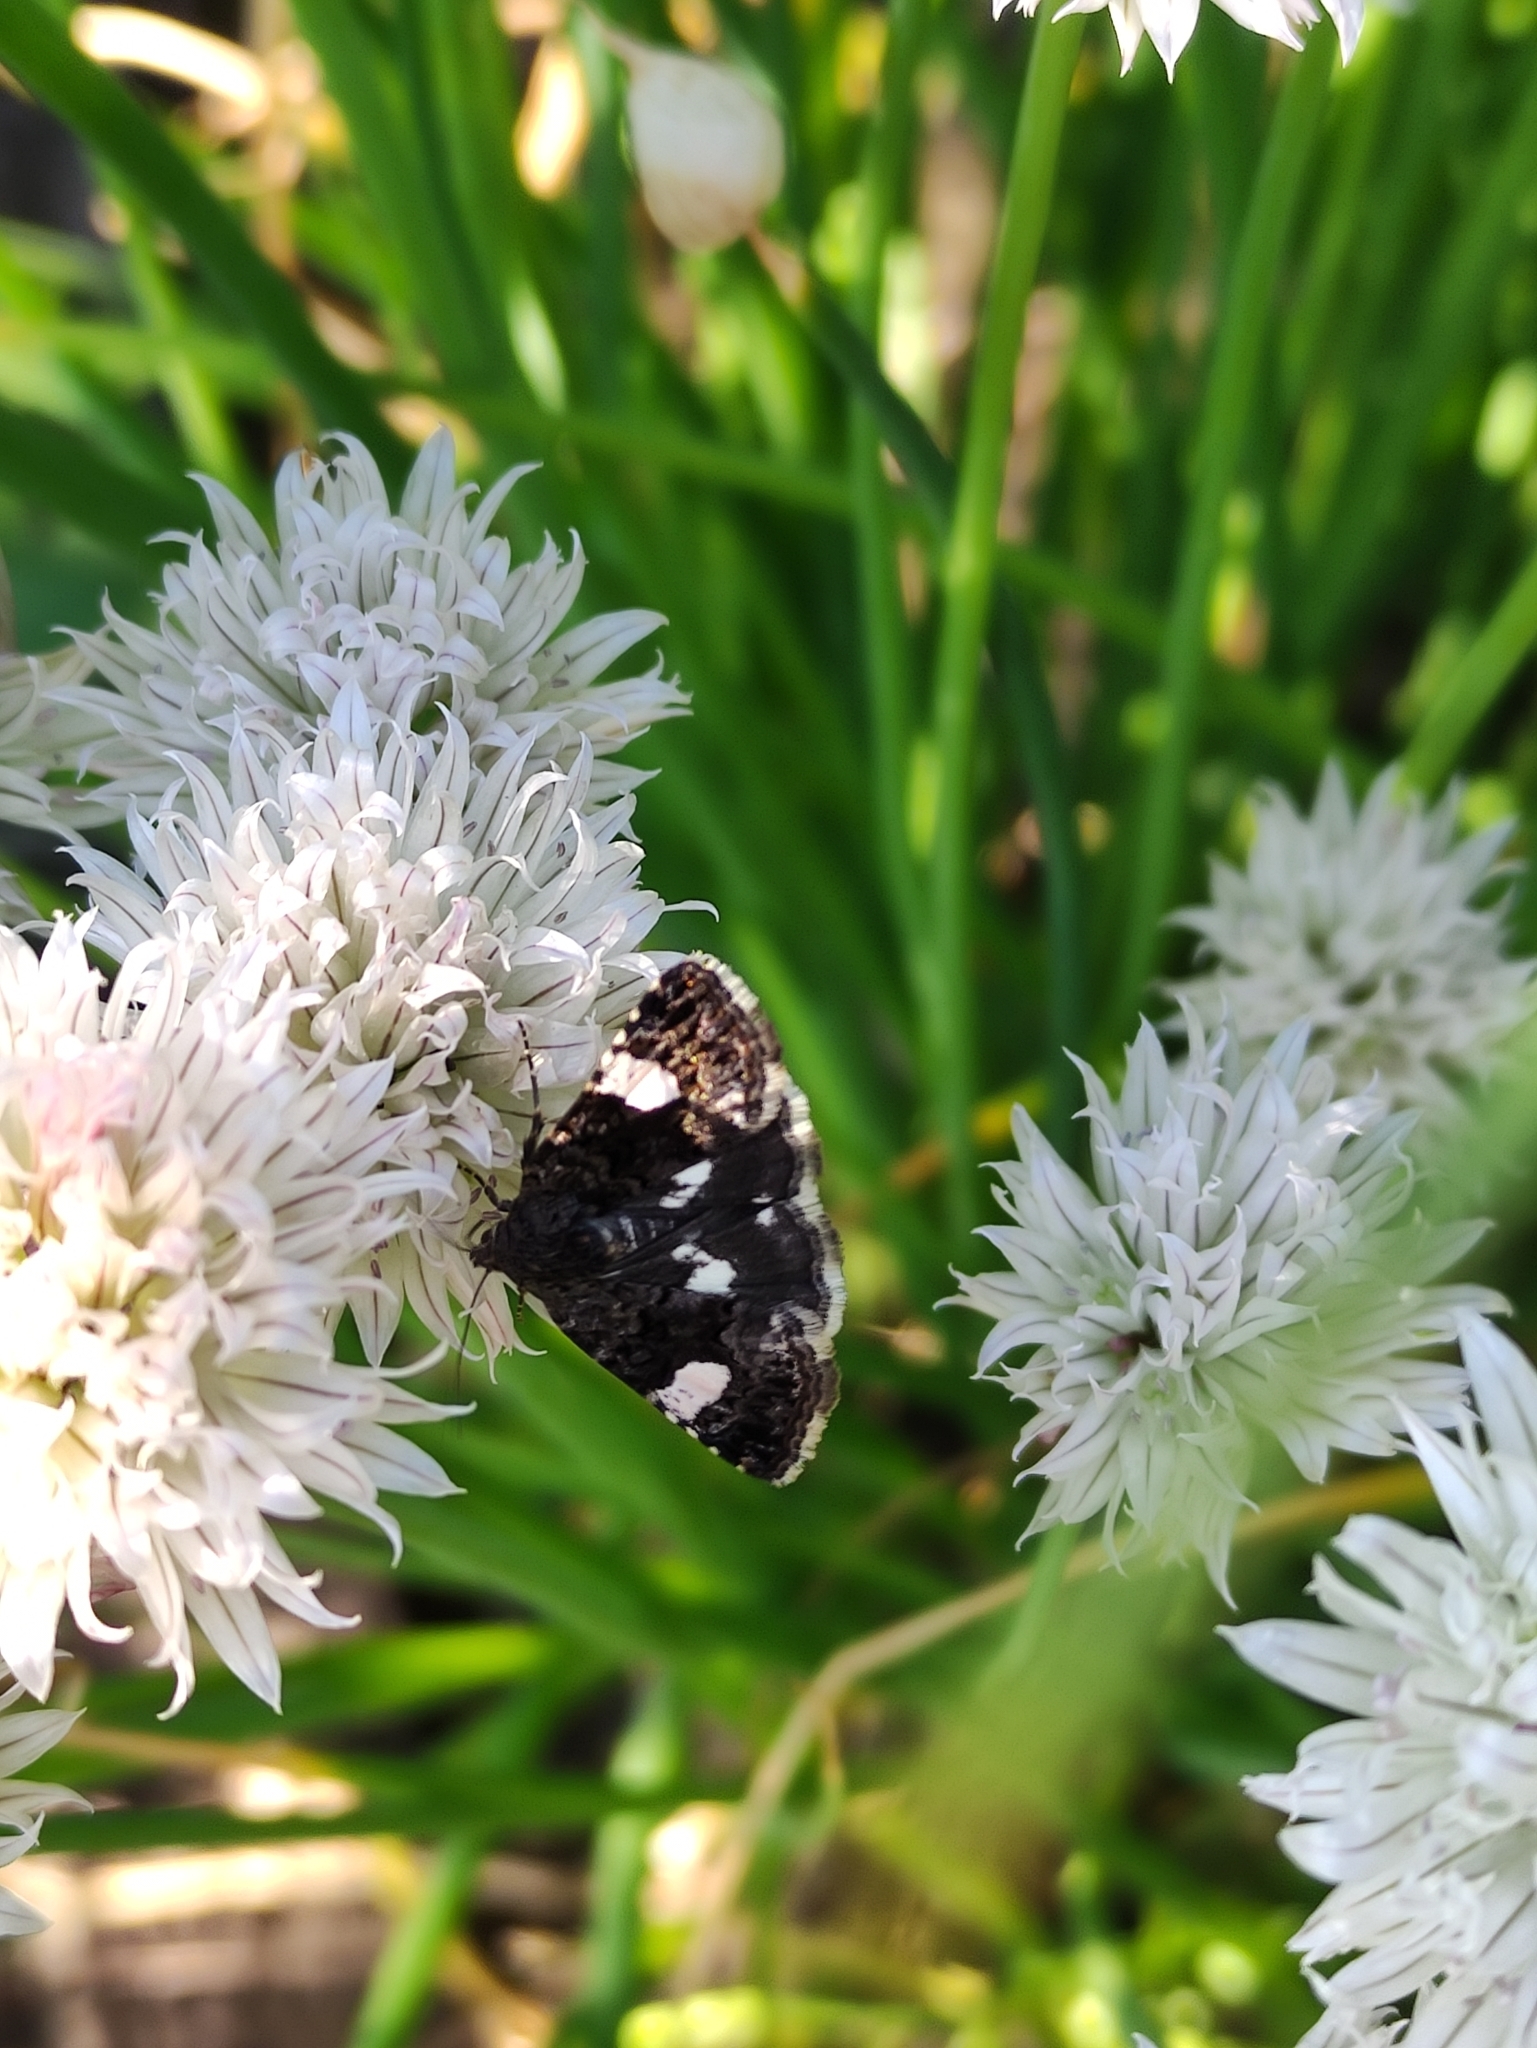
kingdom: Animalia
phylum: Arthropoda
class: Insecta
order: Lepidoptera
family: Erebidae
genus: Tyta
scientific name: Tyta luctuosa
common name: Four-spotted
